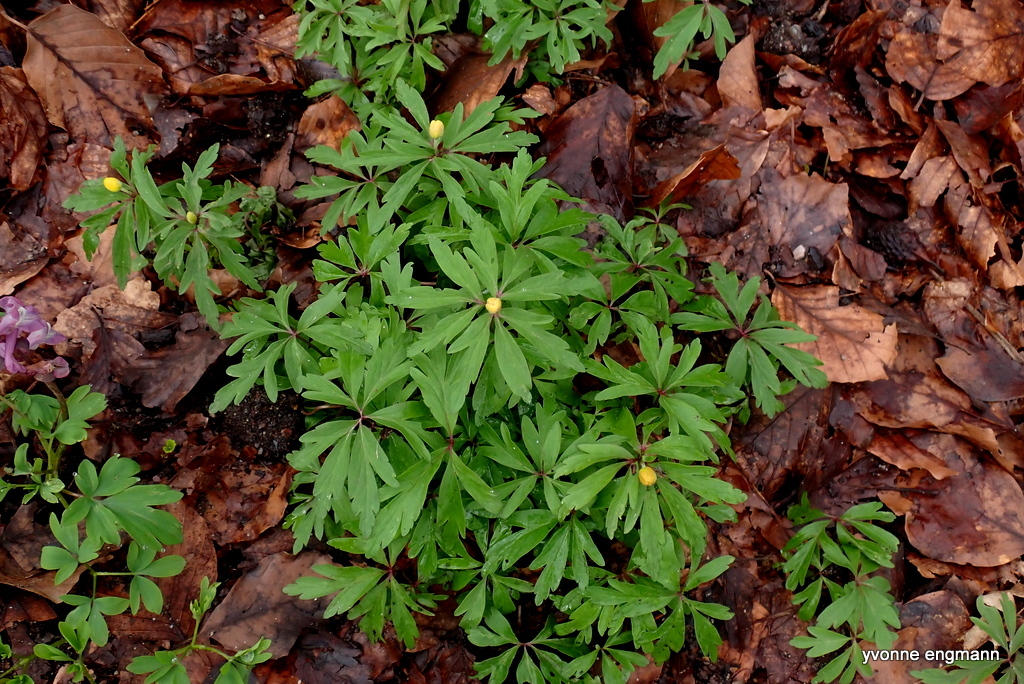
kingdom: Plantae
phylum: Tracheophyta
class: Magnoliopsida
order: Ranunculales
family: Ranunculaceae
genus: Anemone
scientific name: Anemone ranunculoides
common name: Yellow anemone
